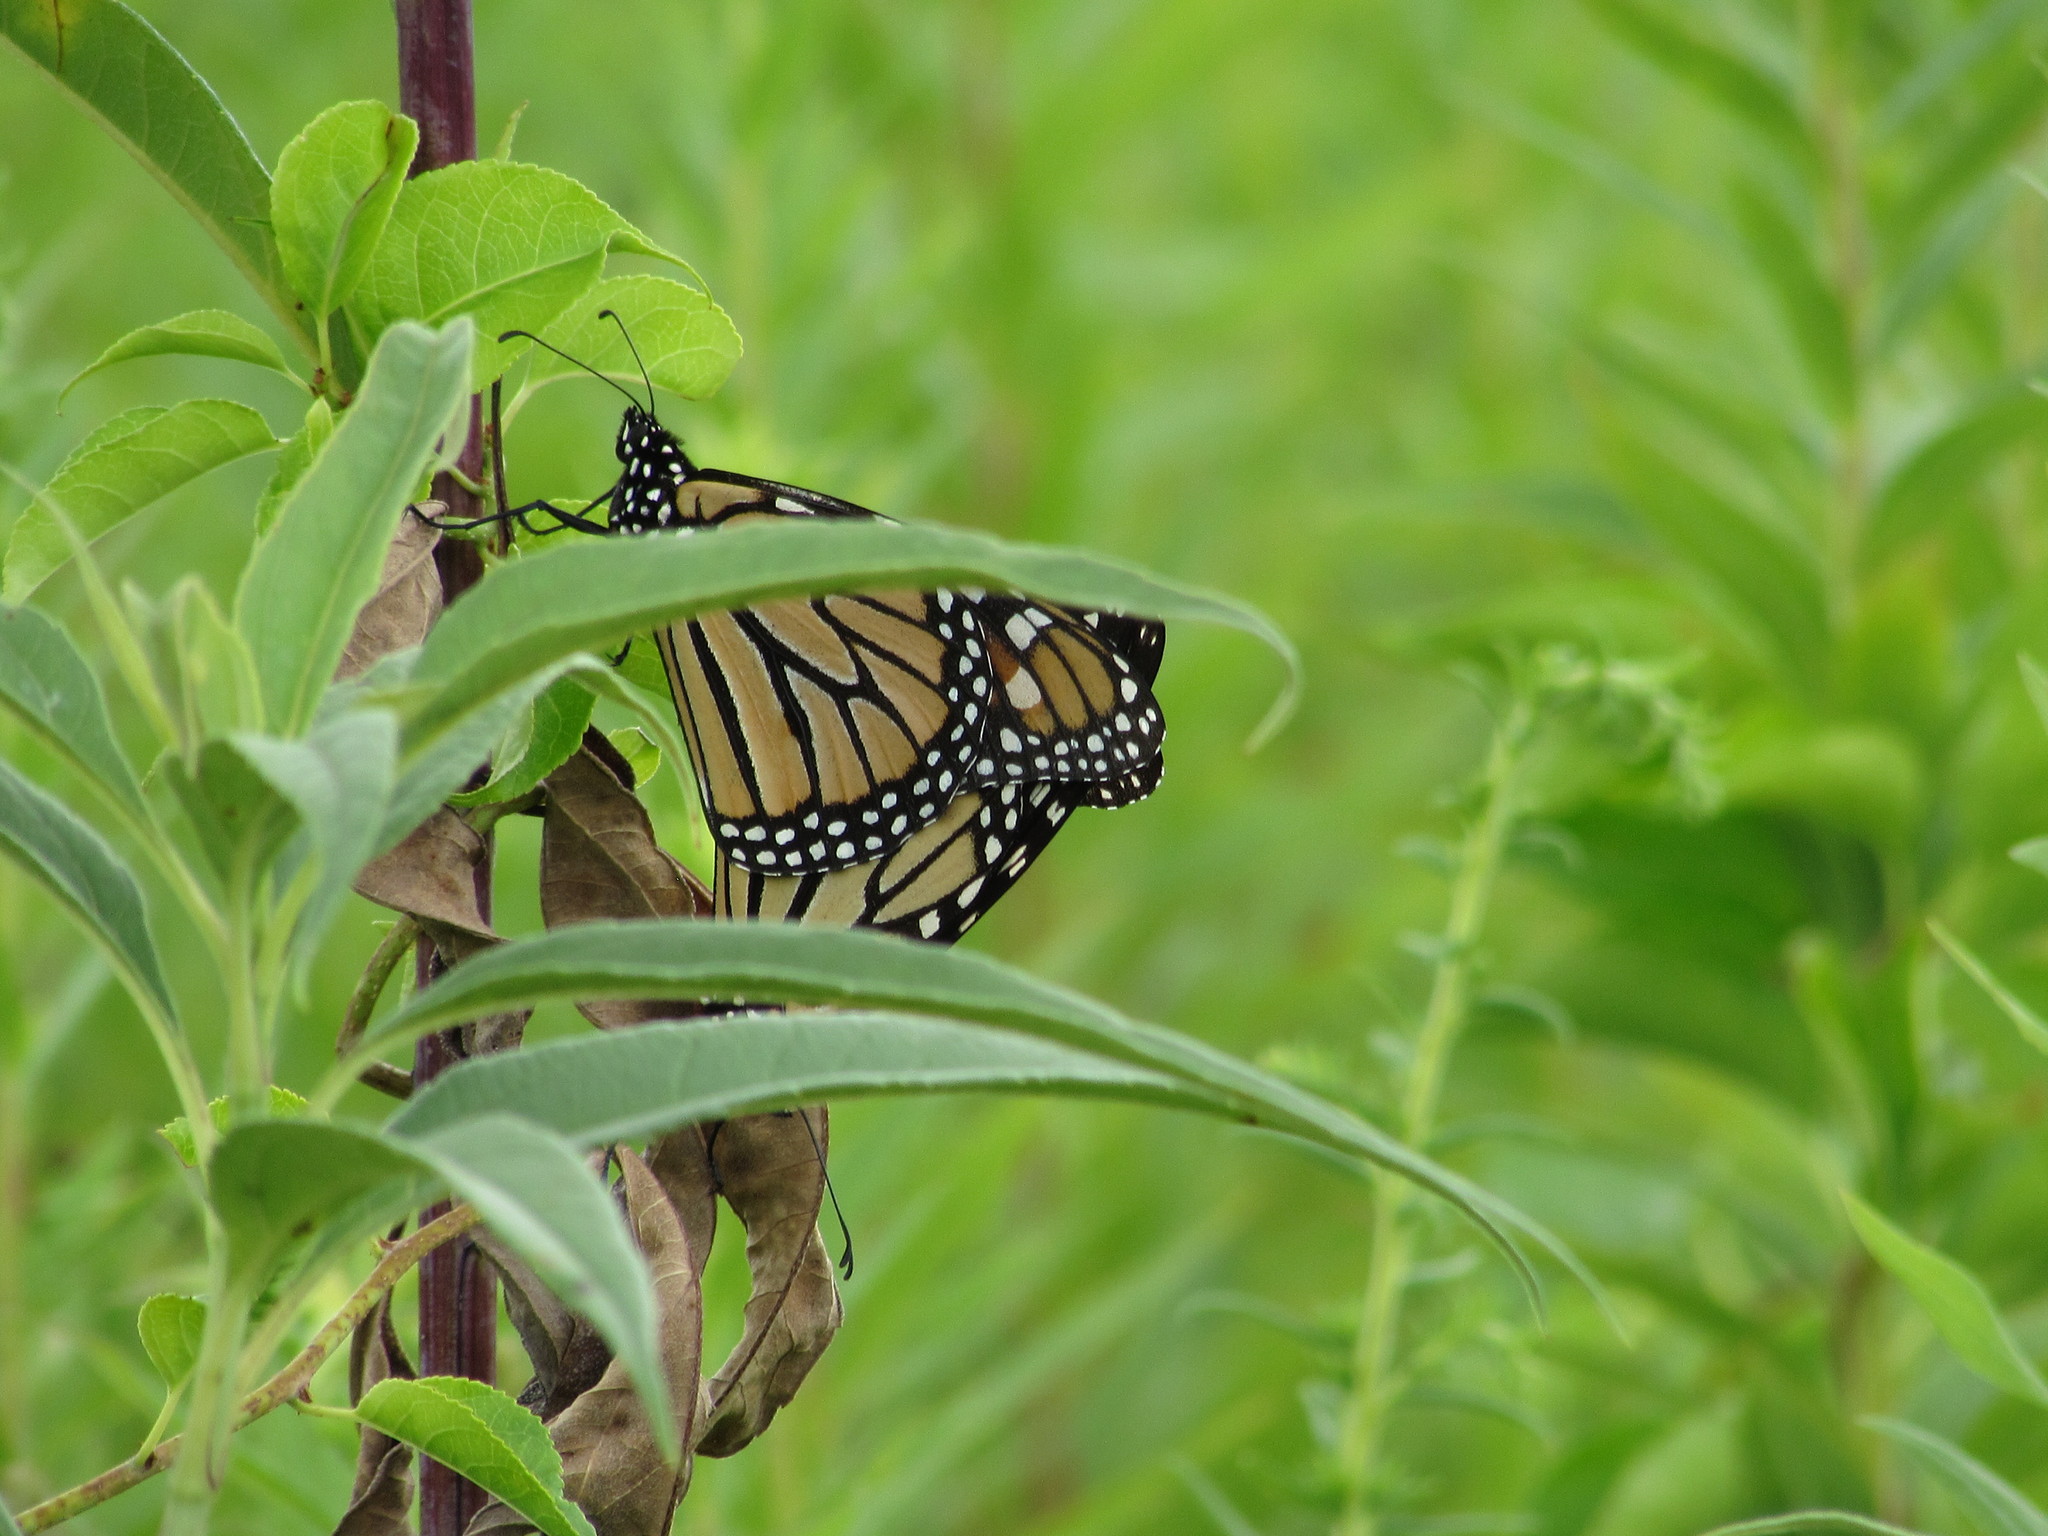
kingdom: Animalia
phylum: Arthropoda
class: Insecta
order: Lepidoptera
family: Nymphalidae
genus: Danaus
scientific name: Danaus plexippus
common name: Monarch
